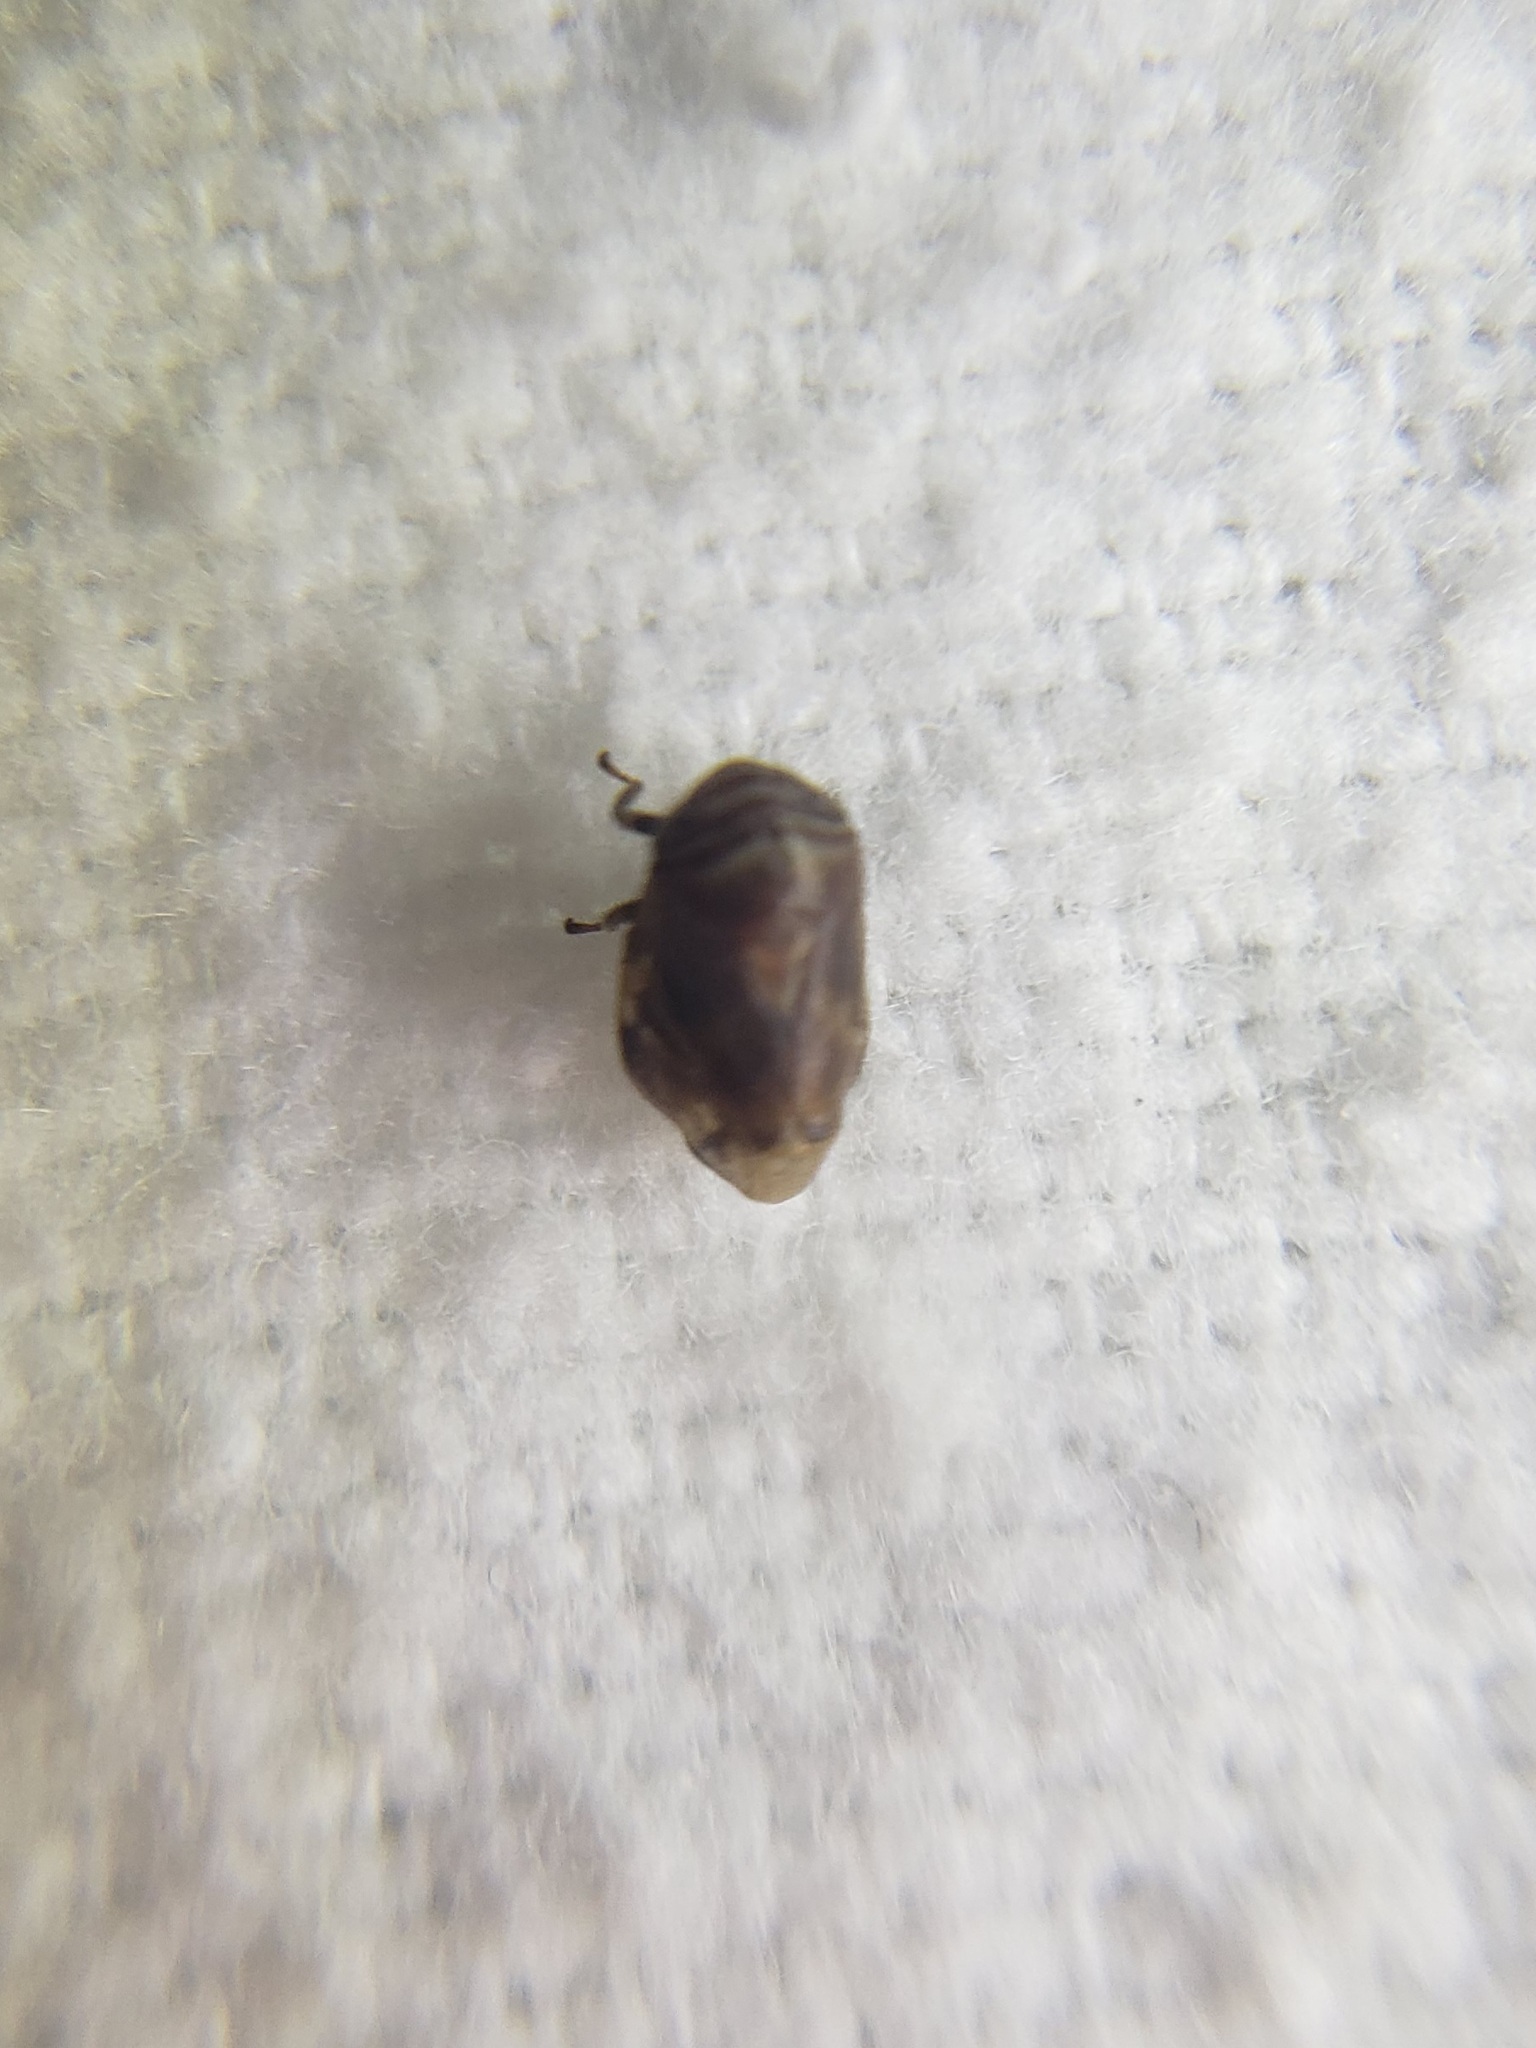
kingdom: Animalia
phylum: Arthropoda
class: Insecta
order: Hemiptera
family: Clastopteridae
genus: Clastoptera
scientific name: Clastoptera obtusa
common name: Alder spittlebug
